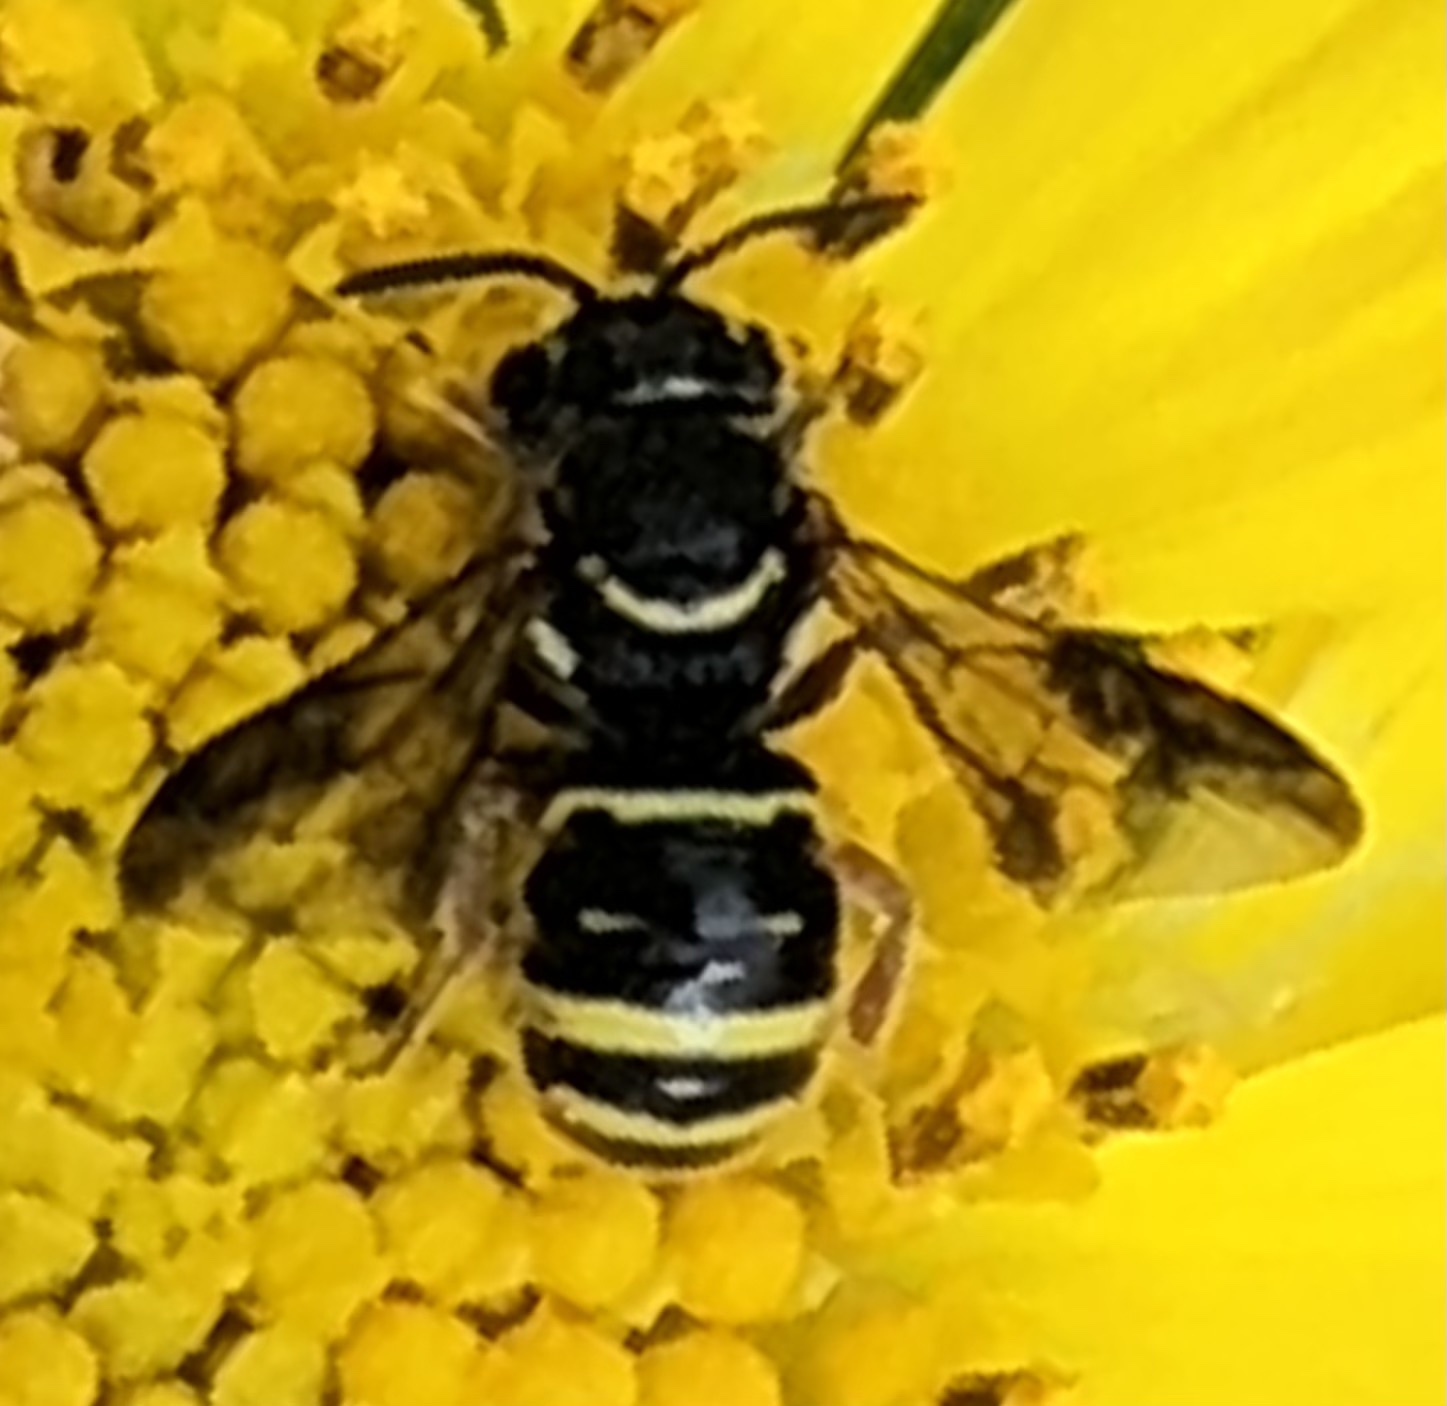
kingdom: Animalia
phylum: Arthropoda
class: Insecta
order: Hymenoptera
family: Megachilidae
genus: Stelis
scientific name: Stelis costalis
